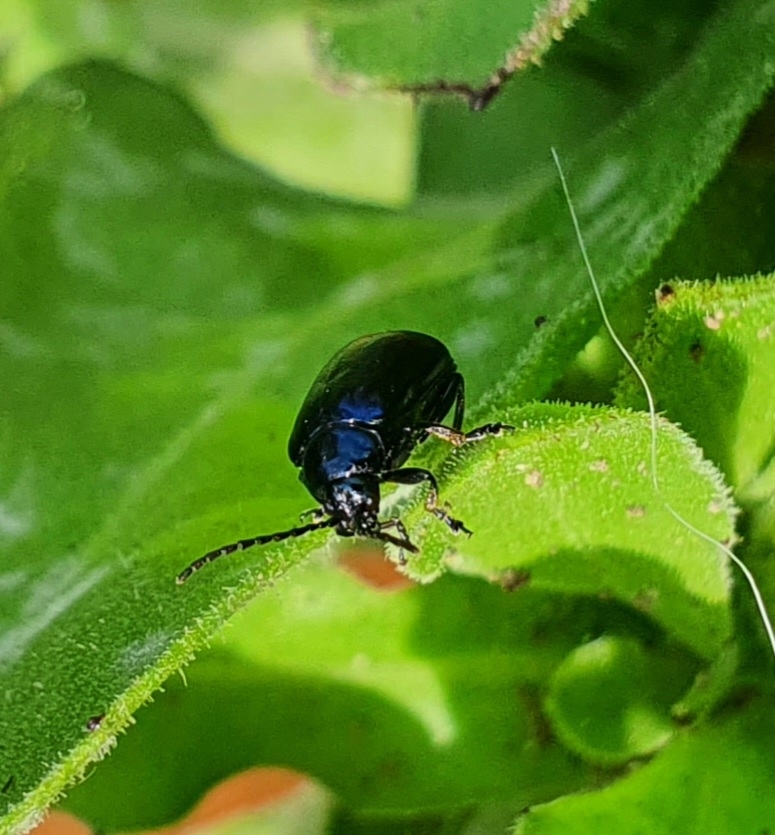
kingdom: Animalia
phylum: Arthropoda
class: Insecta
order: Coleoptera
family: Chrysomelidae
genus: Agelastica
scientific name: Agelastica alni
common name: Alder leaf beetle
